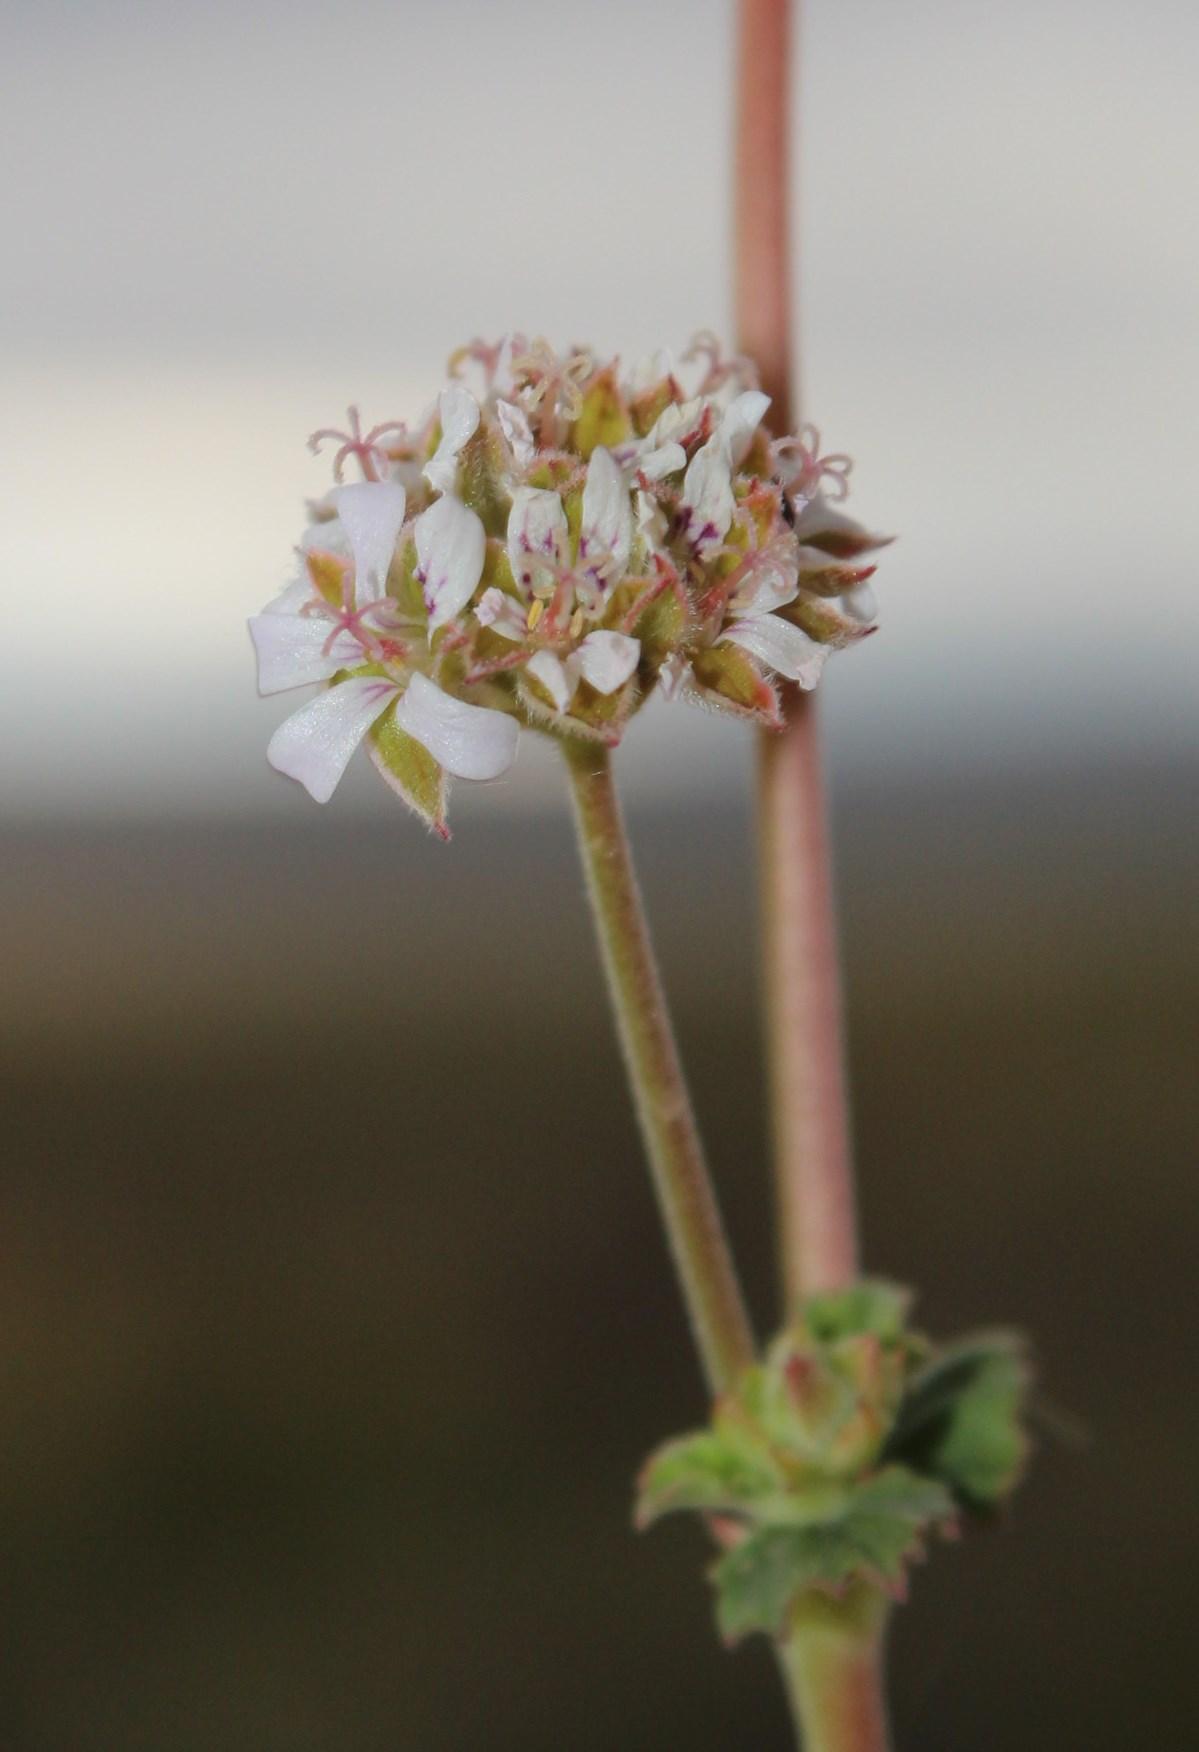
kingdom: Plantae
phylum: Tracheophyta
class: Magnoliopsida
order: Geraniales
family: Geraniaceae
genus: Pelargonium
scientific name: Pelargonium hypoleucum
